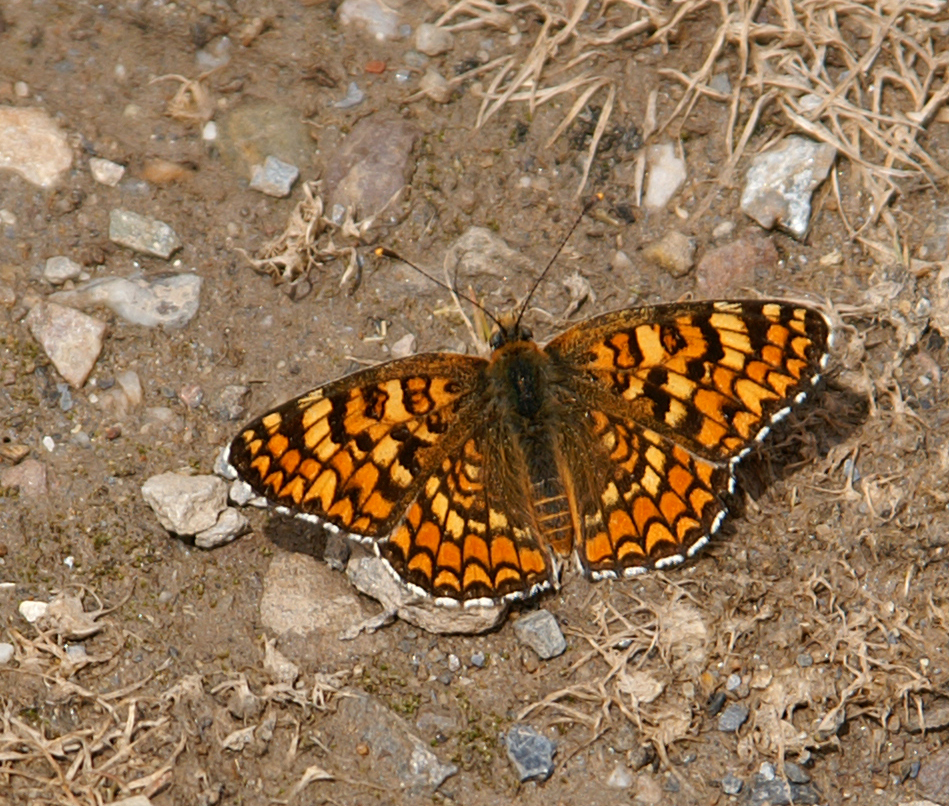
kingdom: Animalia
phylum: Arthropoda
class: Insecta
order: Lepidoptera
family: Nymphalidae
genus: Melitaea
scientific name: Melitaea phoebe
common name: Knapweed fritillary
